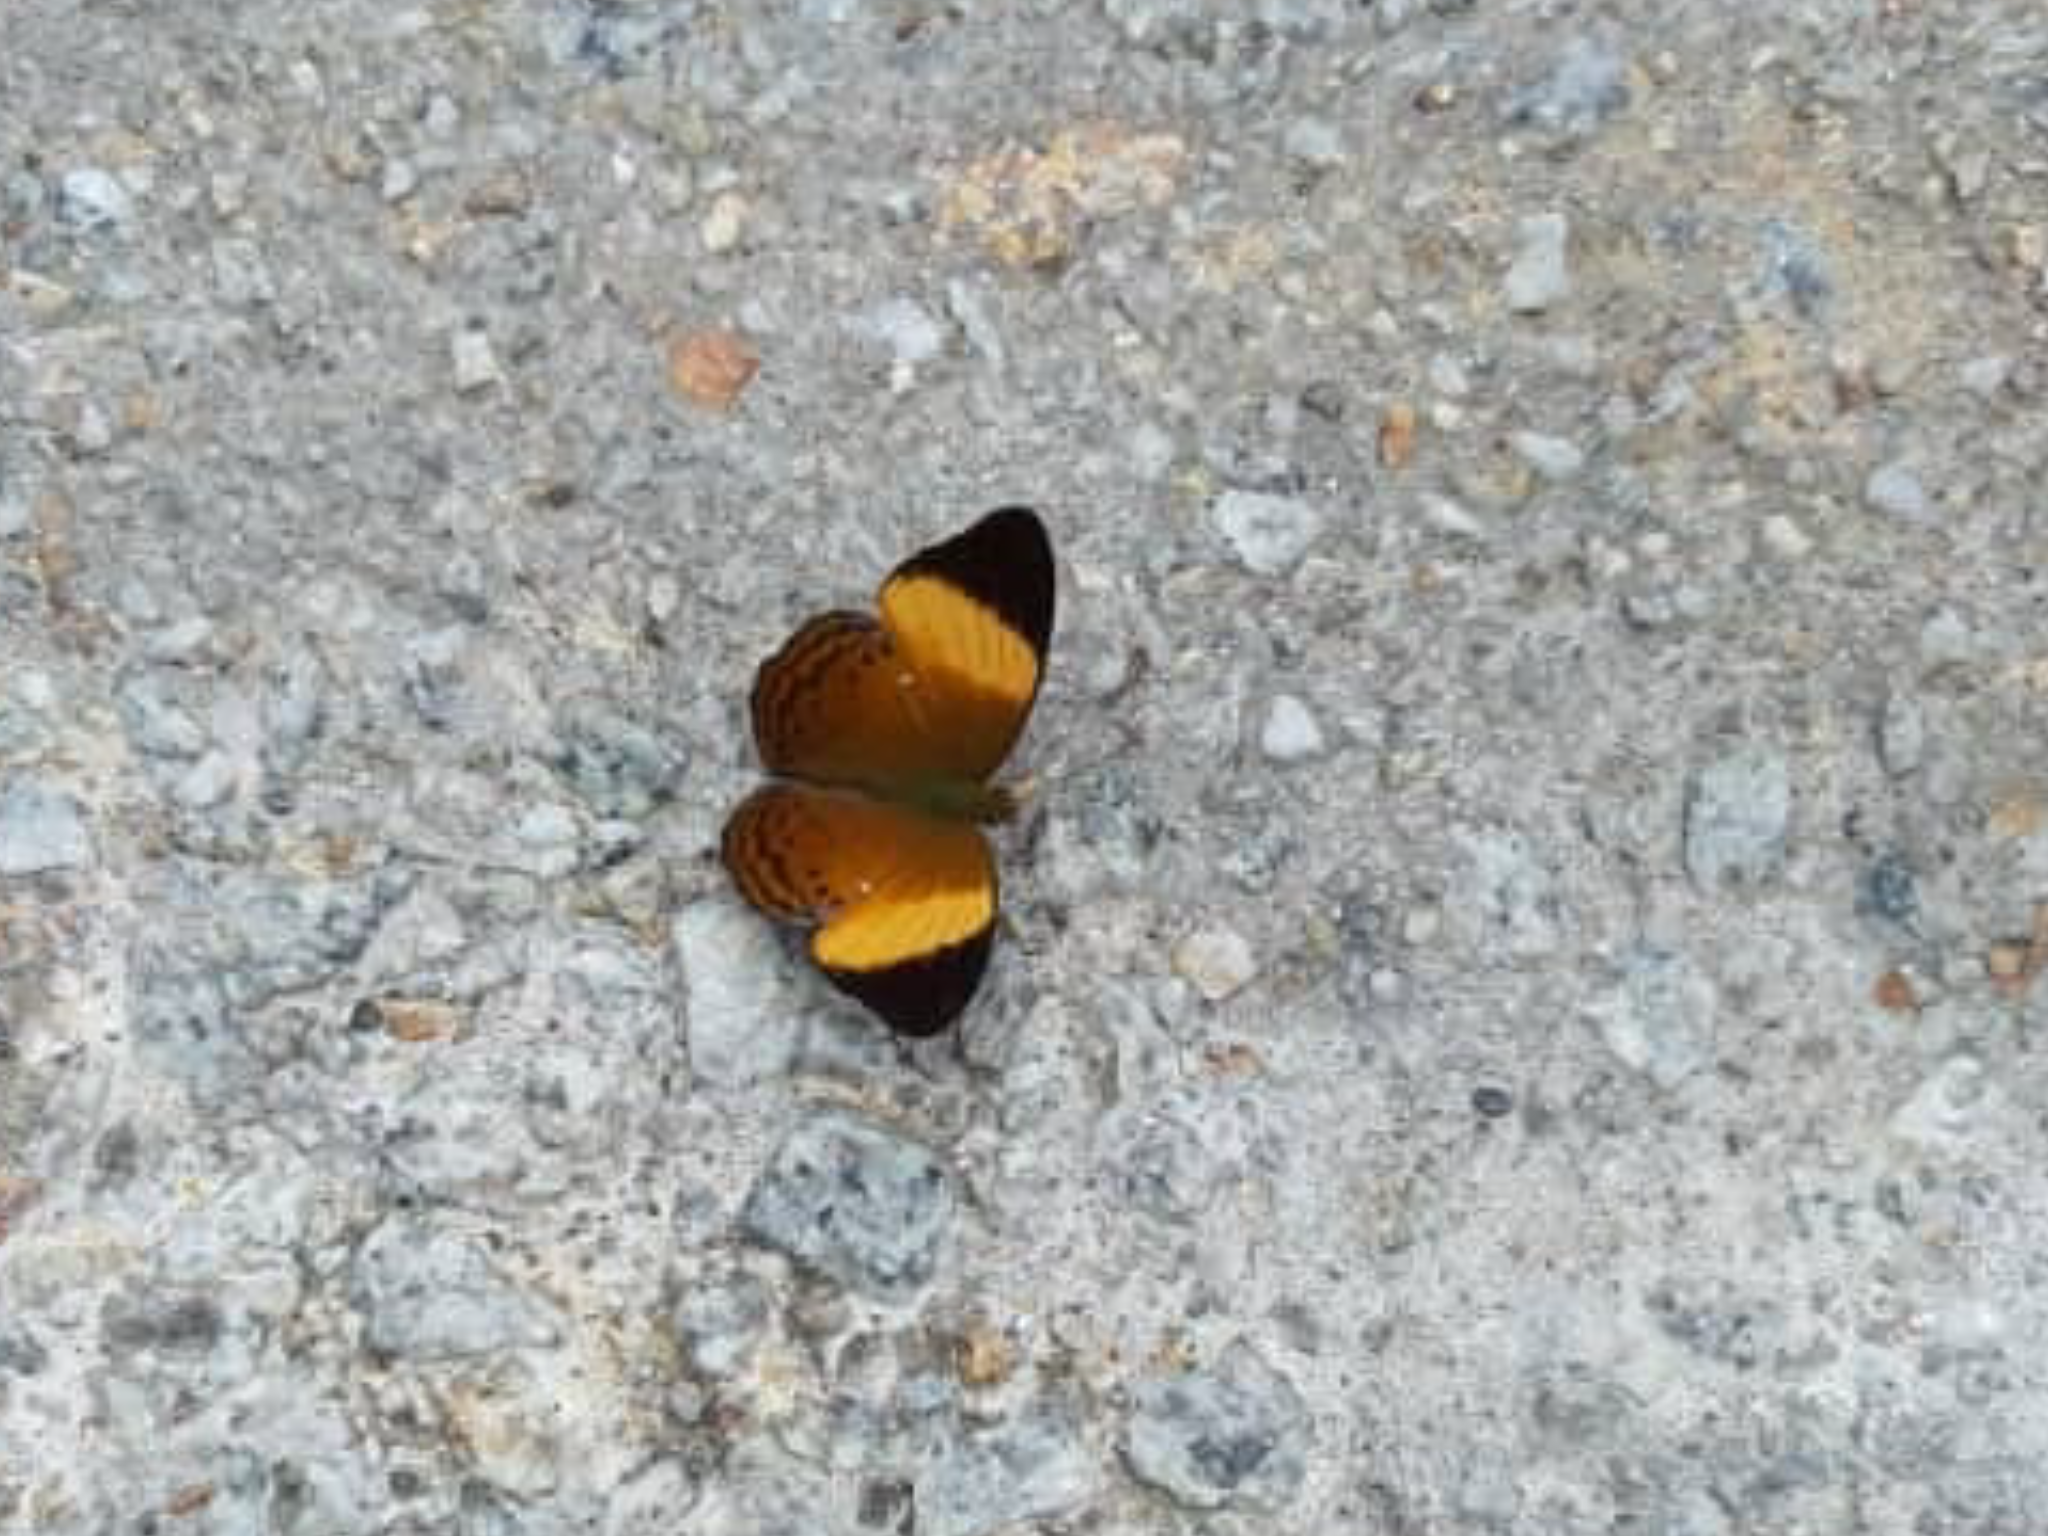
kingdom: Animalia
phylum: Arthropoda
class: Insecta
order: Lepidoptera
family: Nymphalidae
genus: Cirrochroa
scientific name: Cirrochroa orissa
